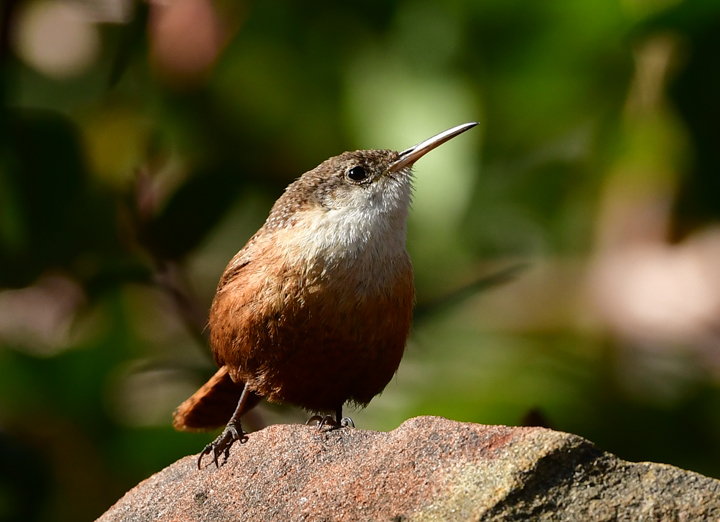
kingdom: Animalia
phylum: Chordata
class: Aves
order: Passeriformes
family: Troglodytidae
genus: Catherpes
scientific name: Catherpes mexicanus
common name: Canyon wren
